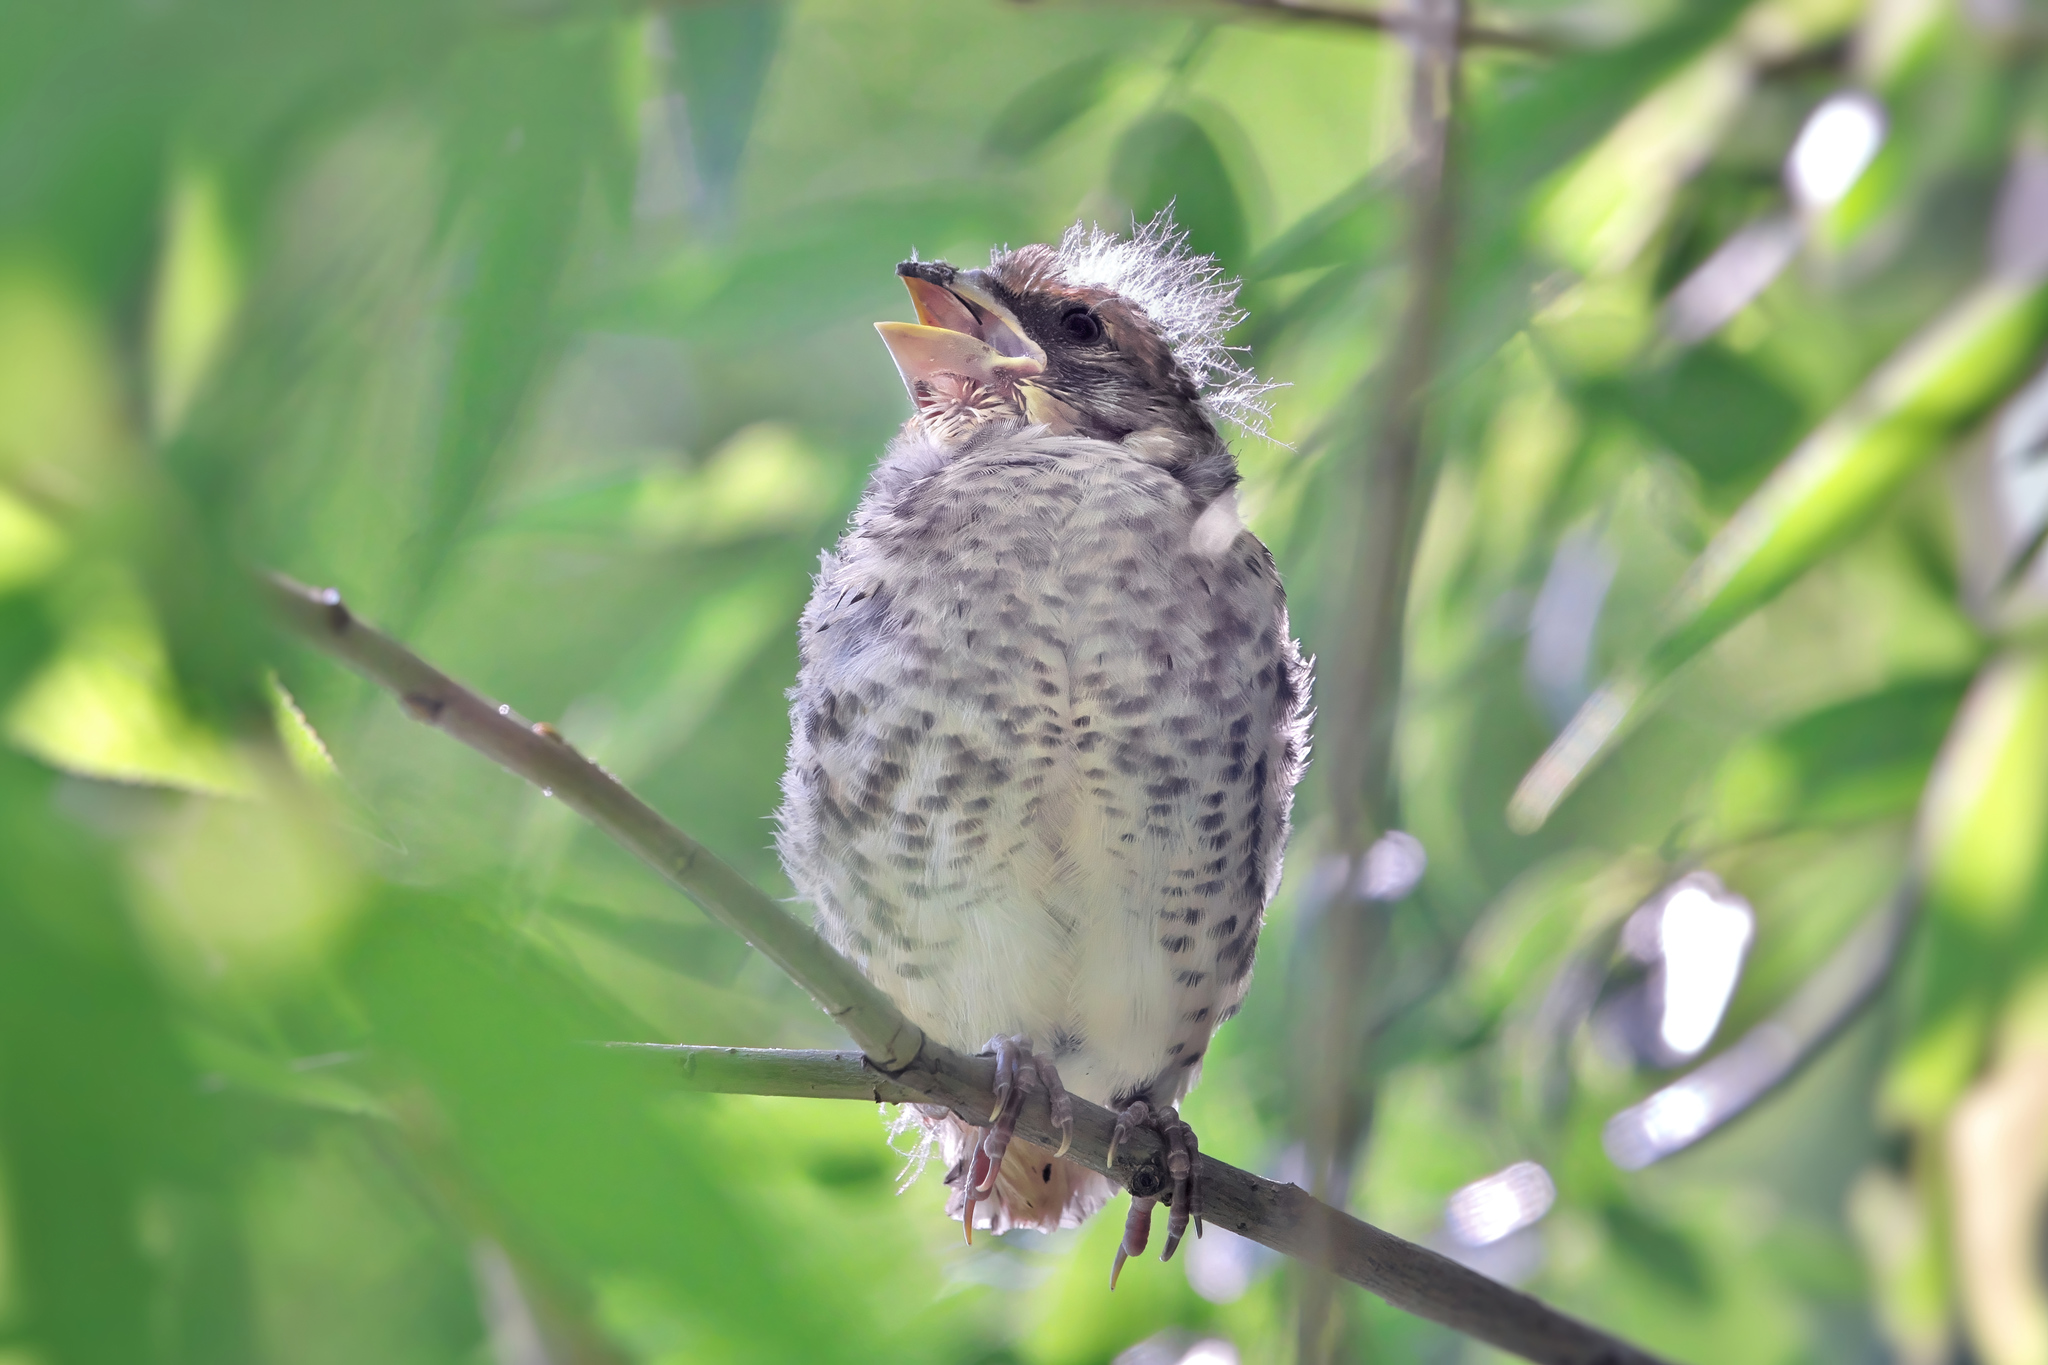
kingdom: Animalia
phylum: Chordata
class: Aves
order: Passeriformes
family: Fringillidae
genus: Coccothraustes
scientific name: Coccothraustes coccothraustes
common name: Hawfinch
